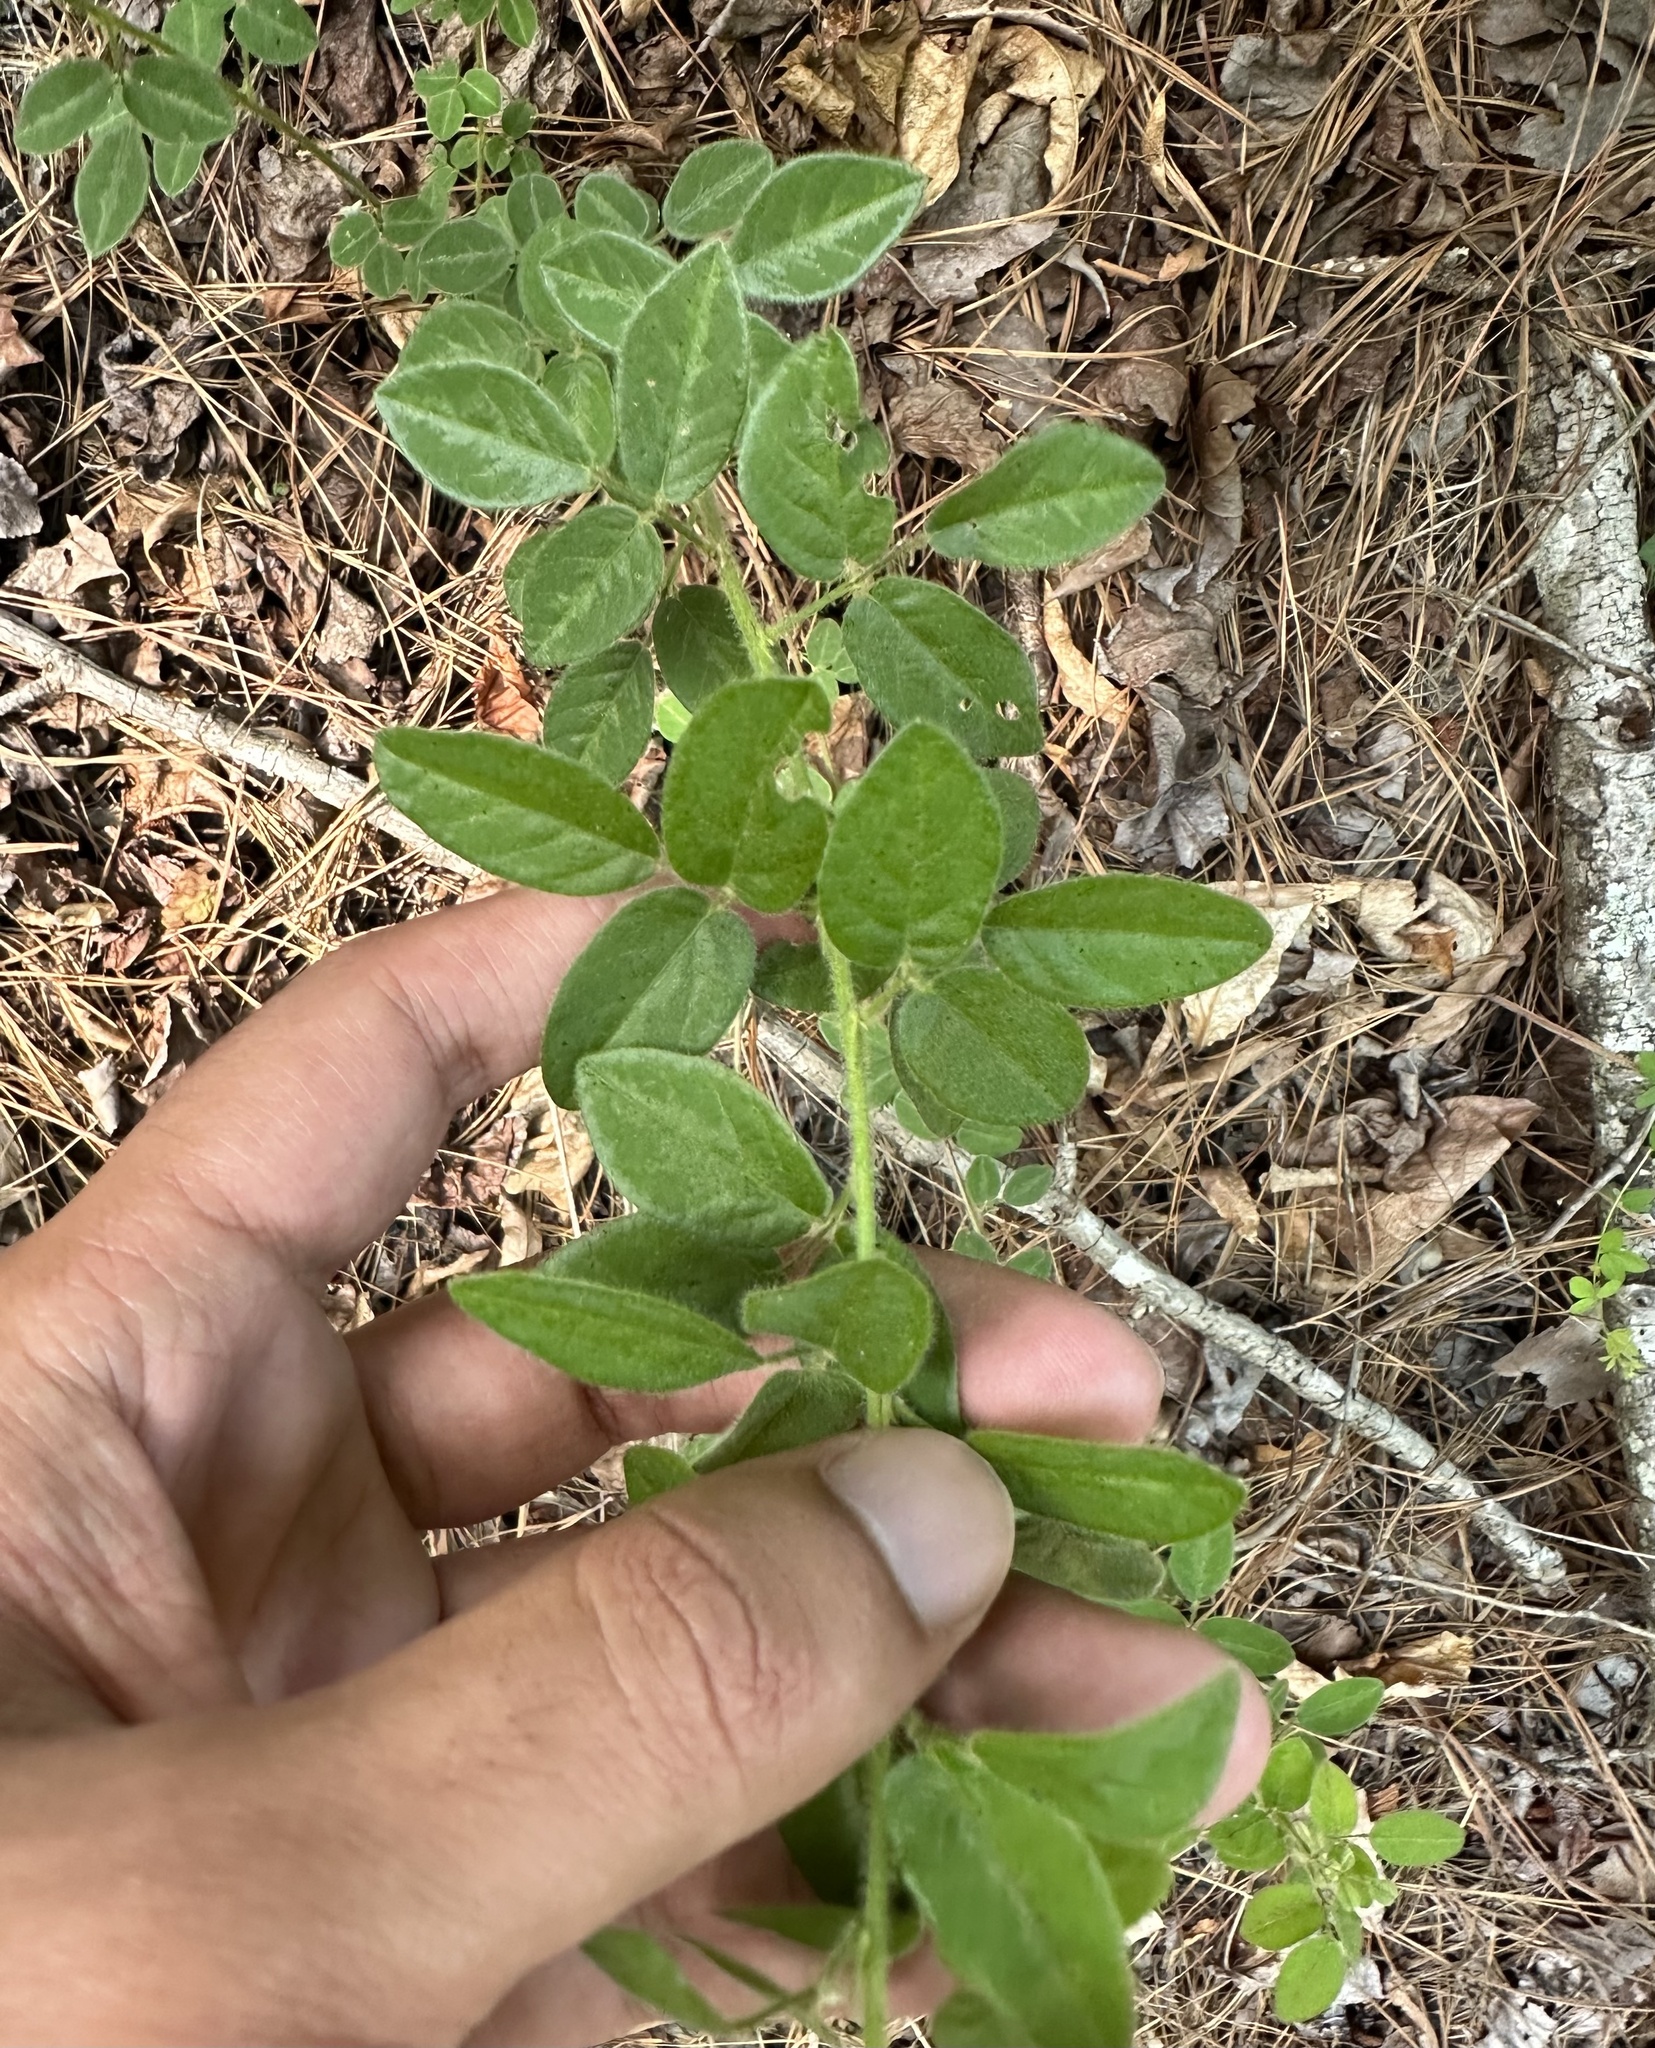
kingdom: Plantae
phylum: Tracheophyta
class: Magnoliopsida
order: Fabales
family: Fabaceae
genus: Desmodium
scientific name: Desmodium ciliare
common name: Hairy small-leaf ticktrefoil
